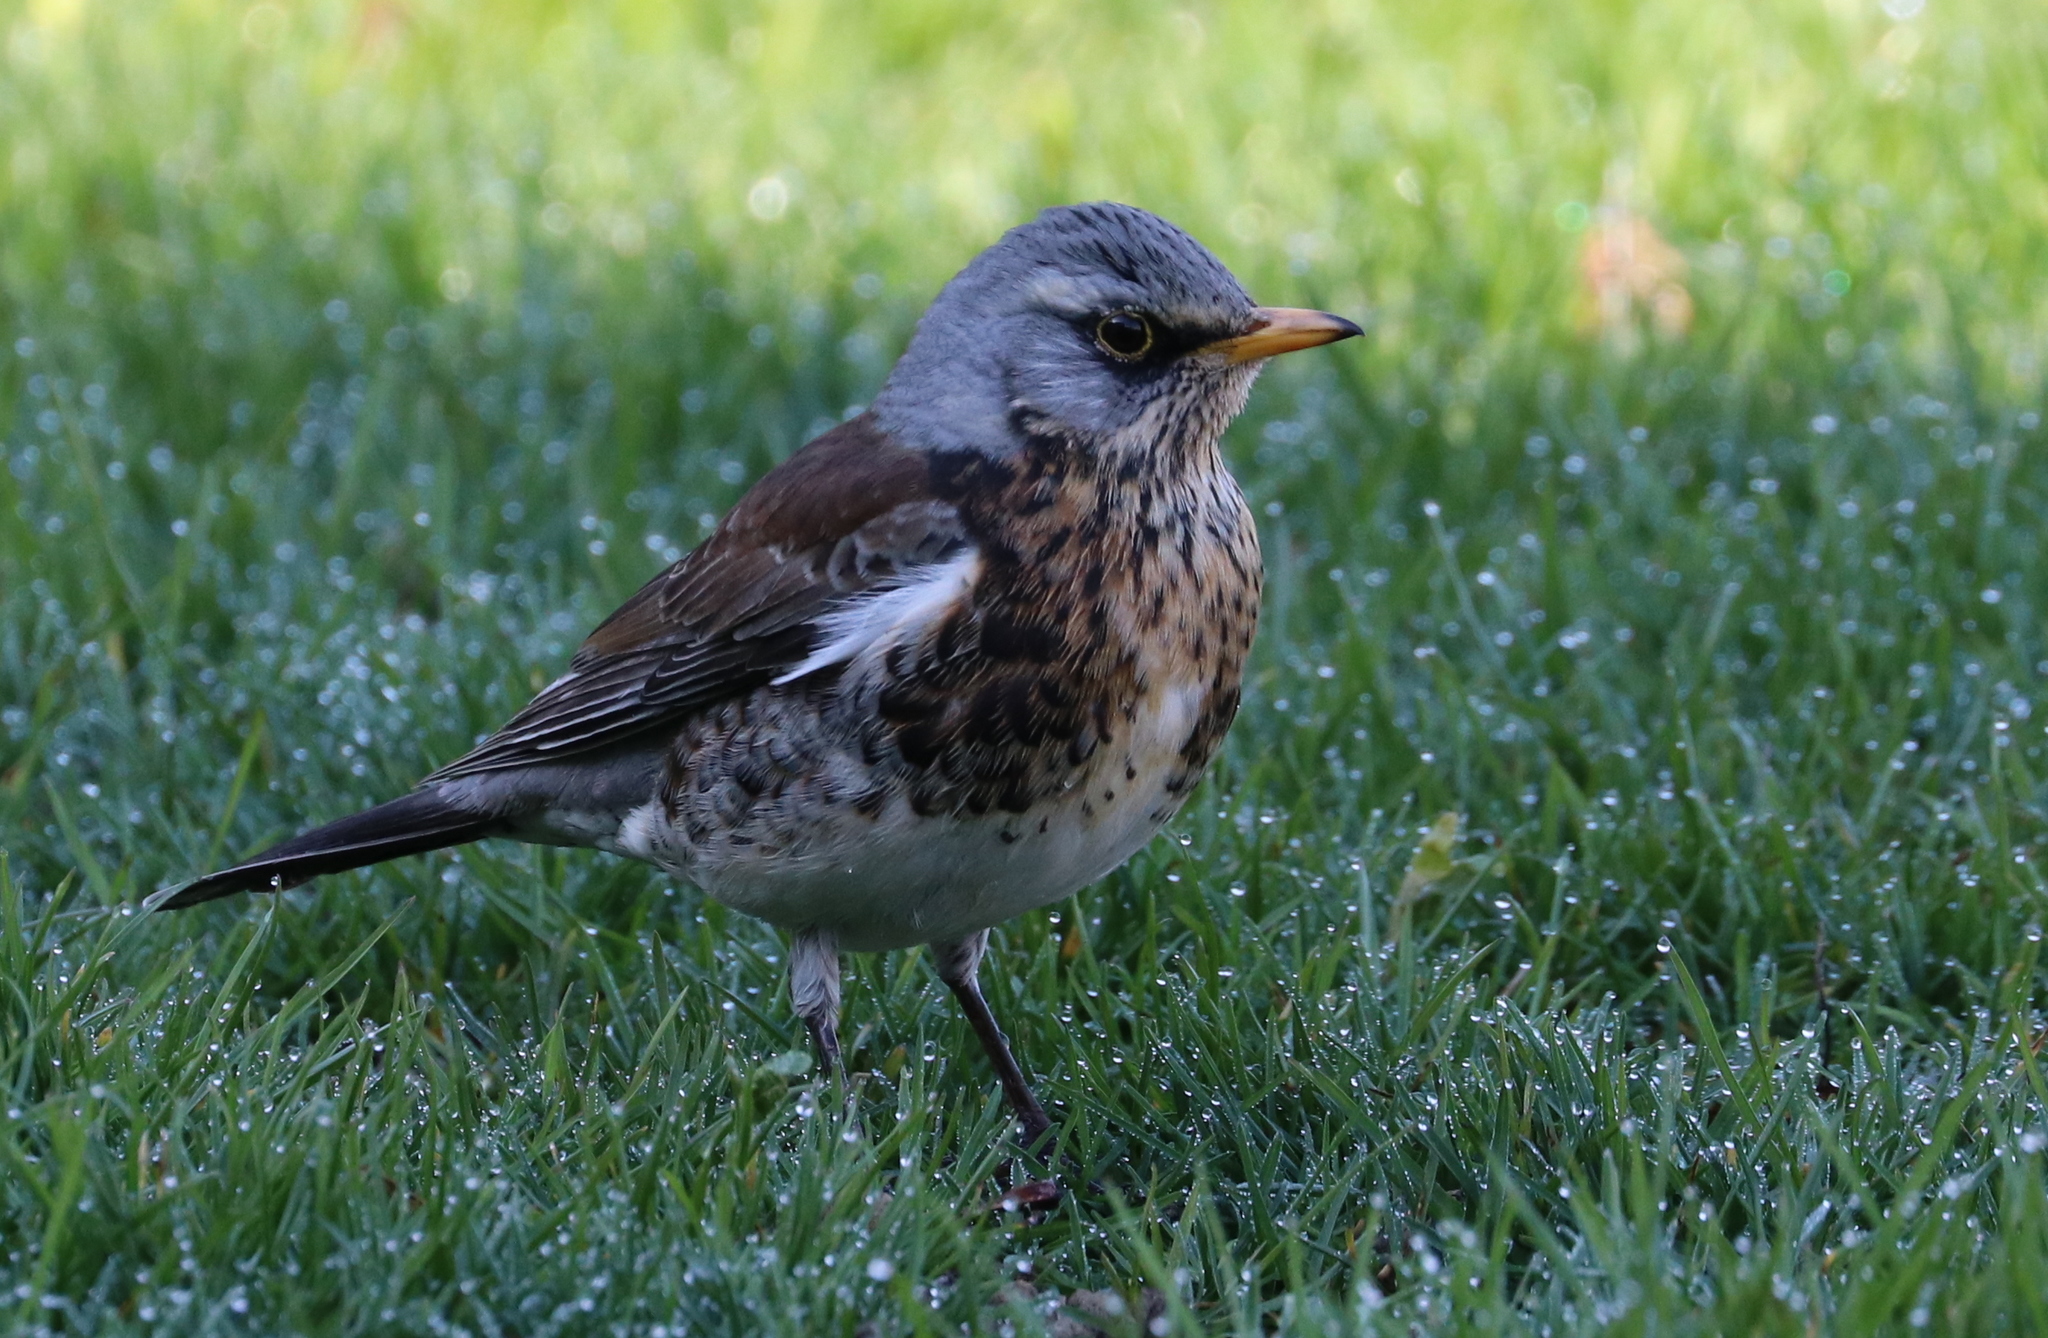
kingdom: Animalia
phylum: Chordata
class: Aves
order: Passeriformes
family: Turdidae
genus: Turdus
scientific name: Turdus pilaris
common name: Fieldfare
